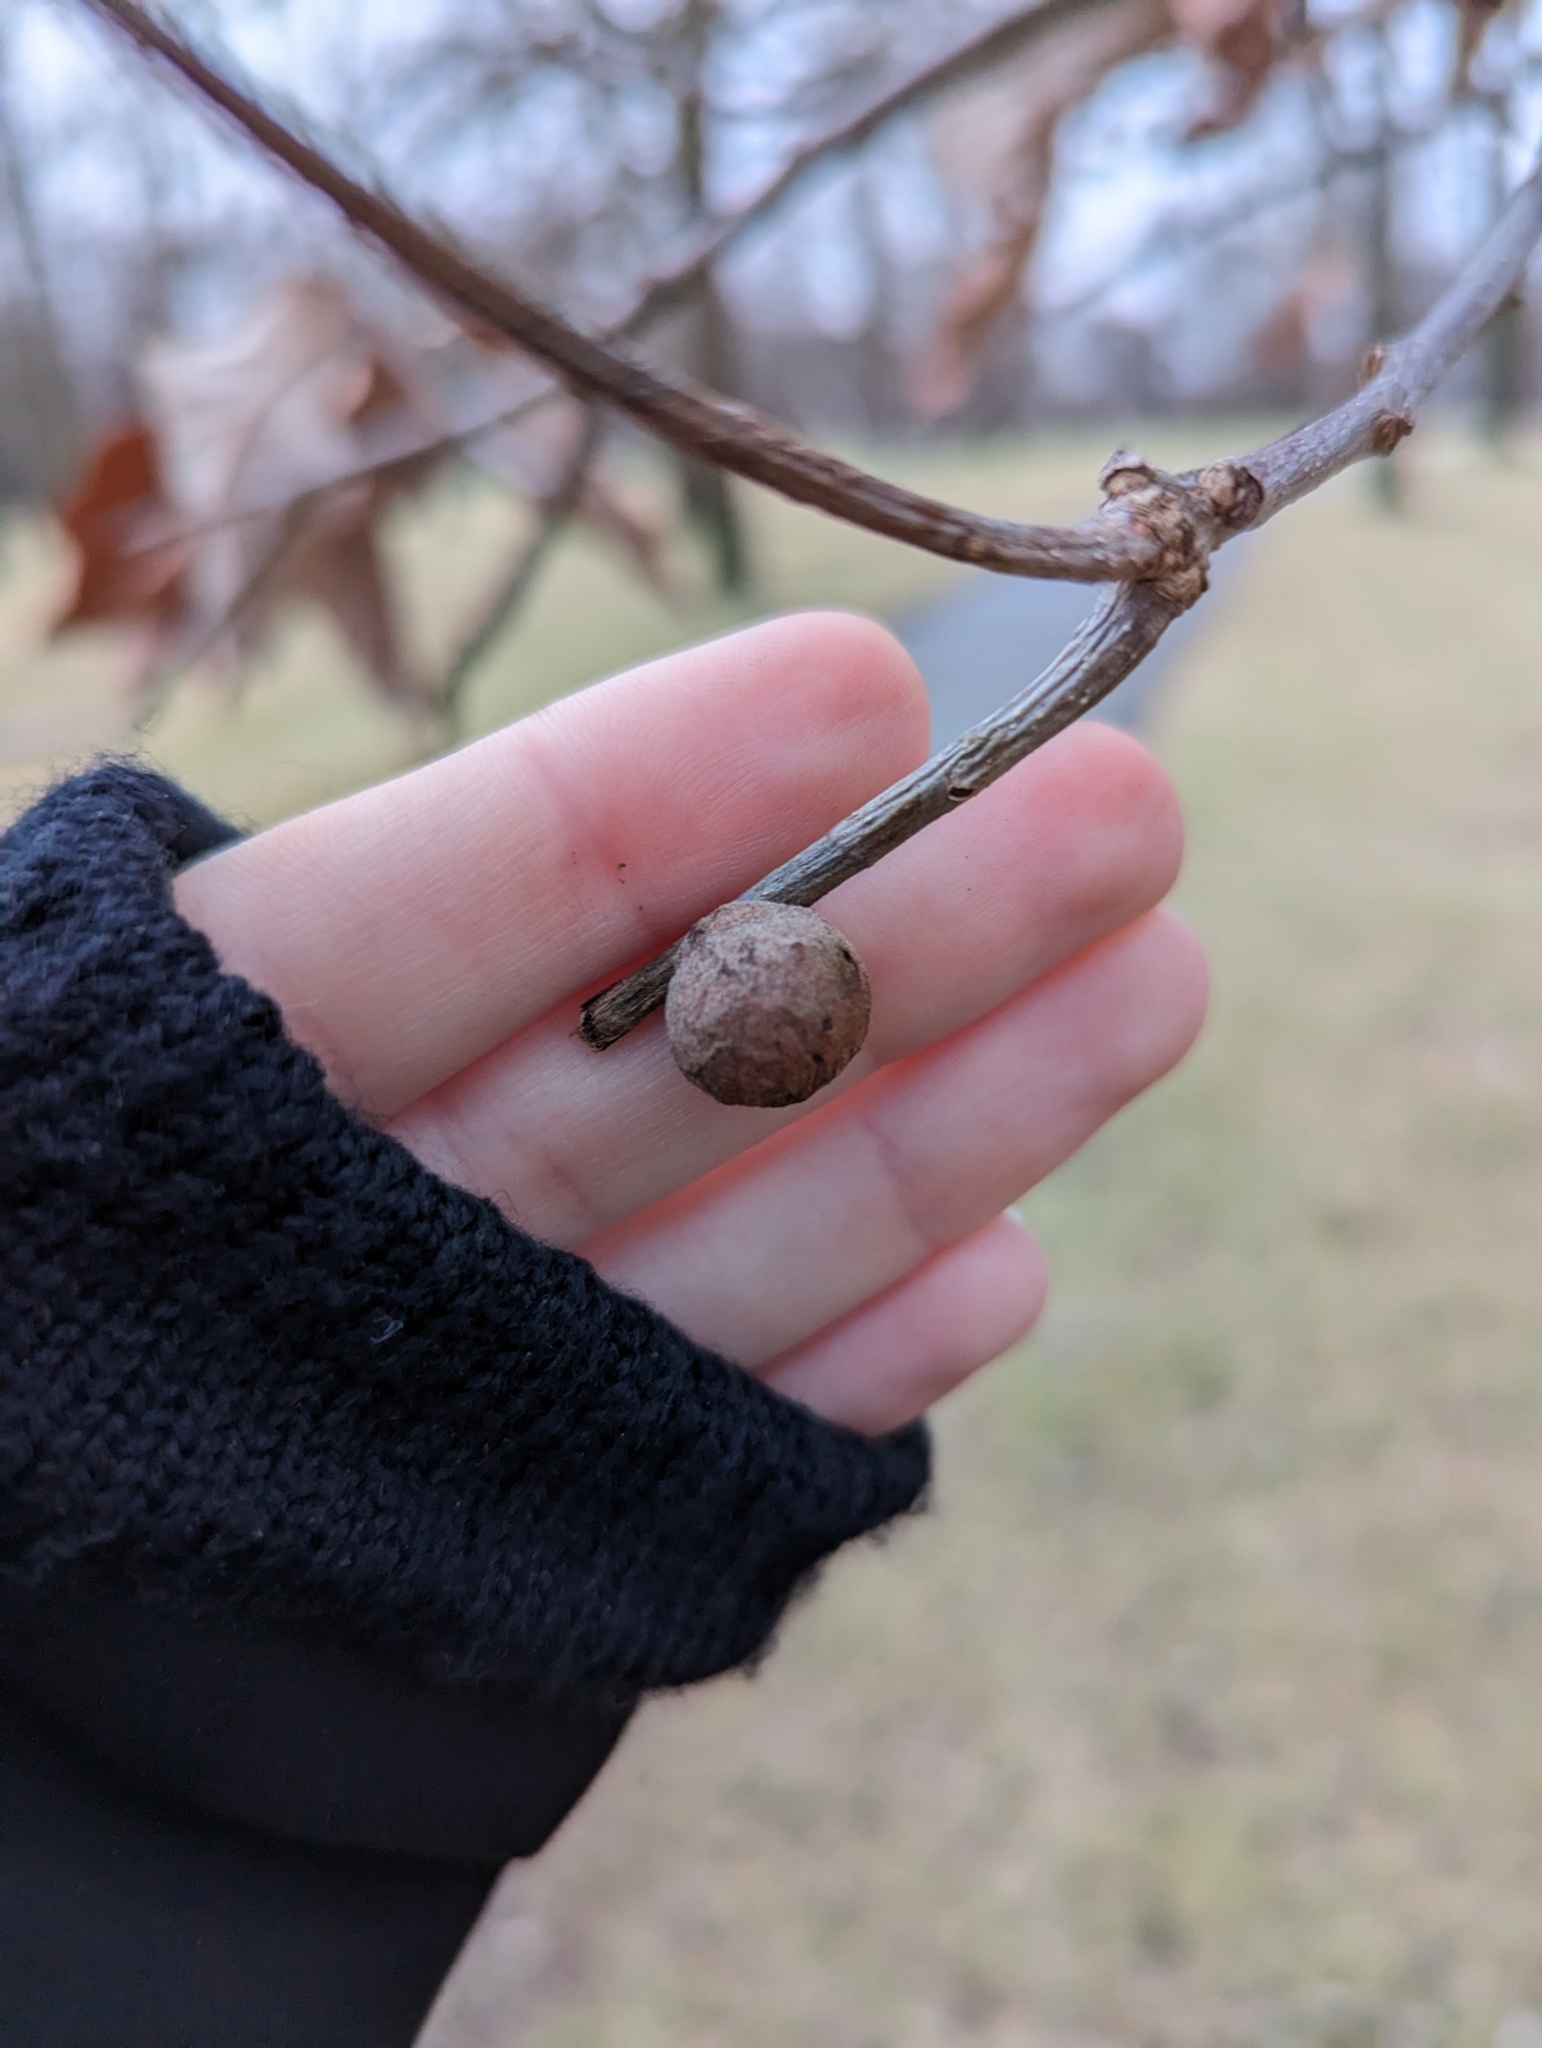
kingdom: Animalia
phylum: Arthropoda
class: Insecta
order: Hymenoptera
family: Cynipidae
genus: Disholcaspis
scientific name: Disholcaspis quercusglobulus
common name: Round bullet gall wasp
